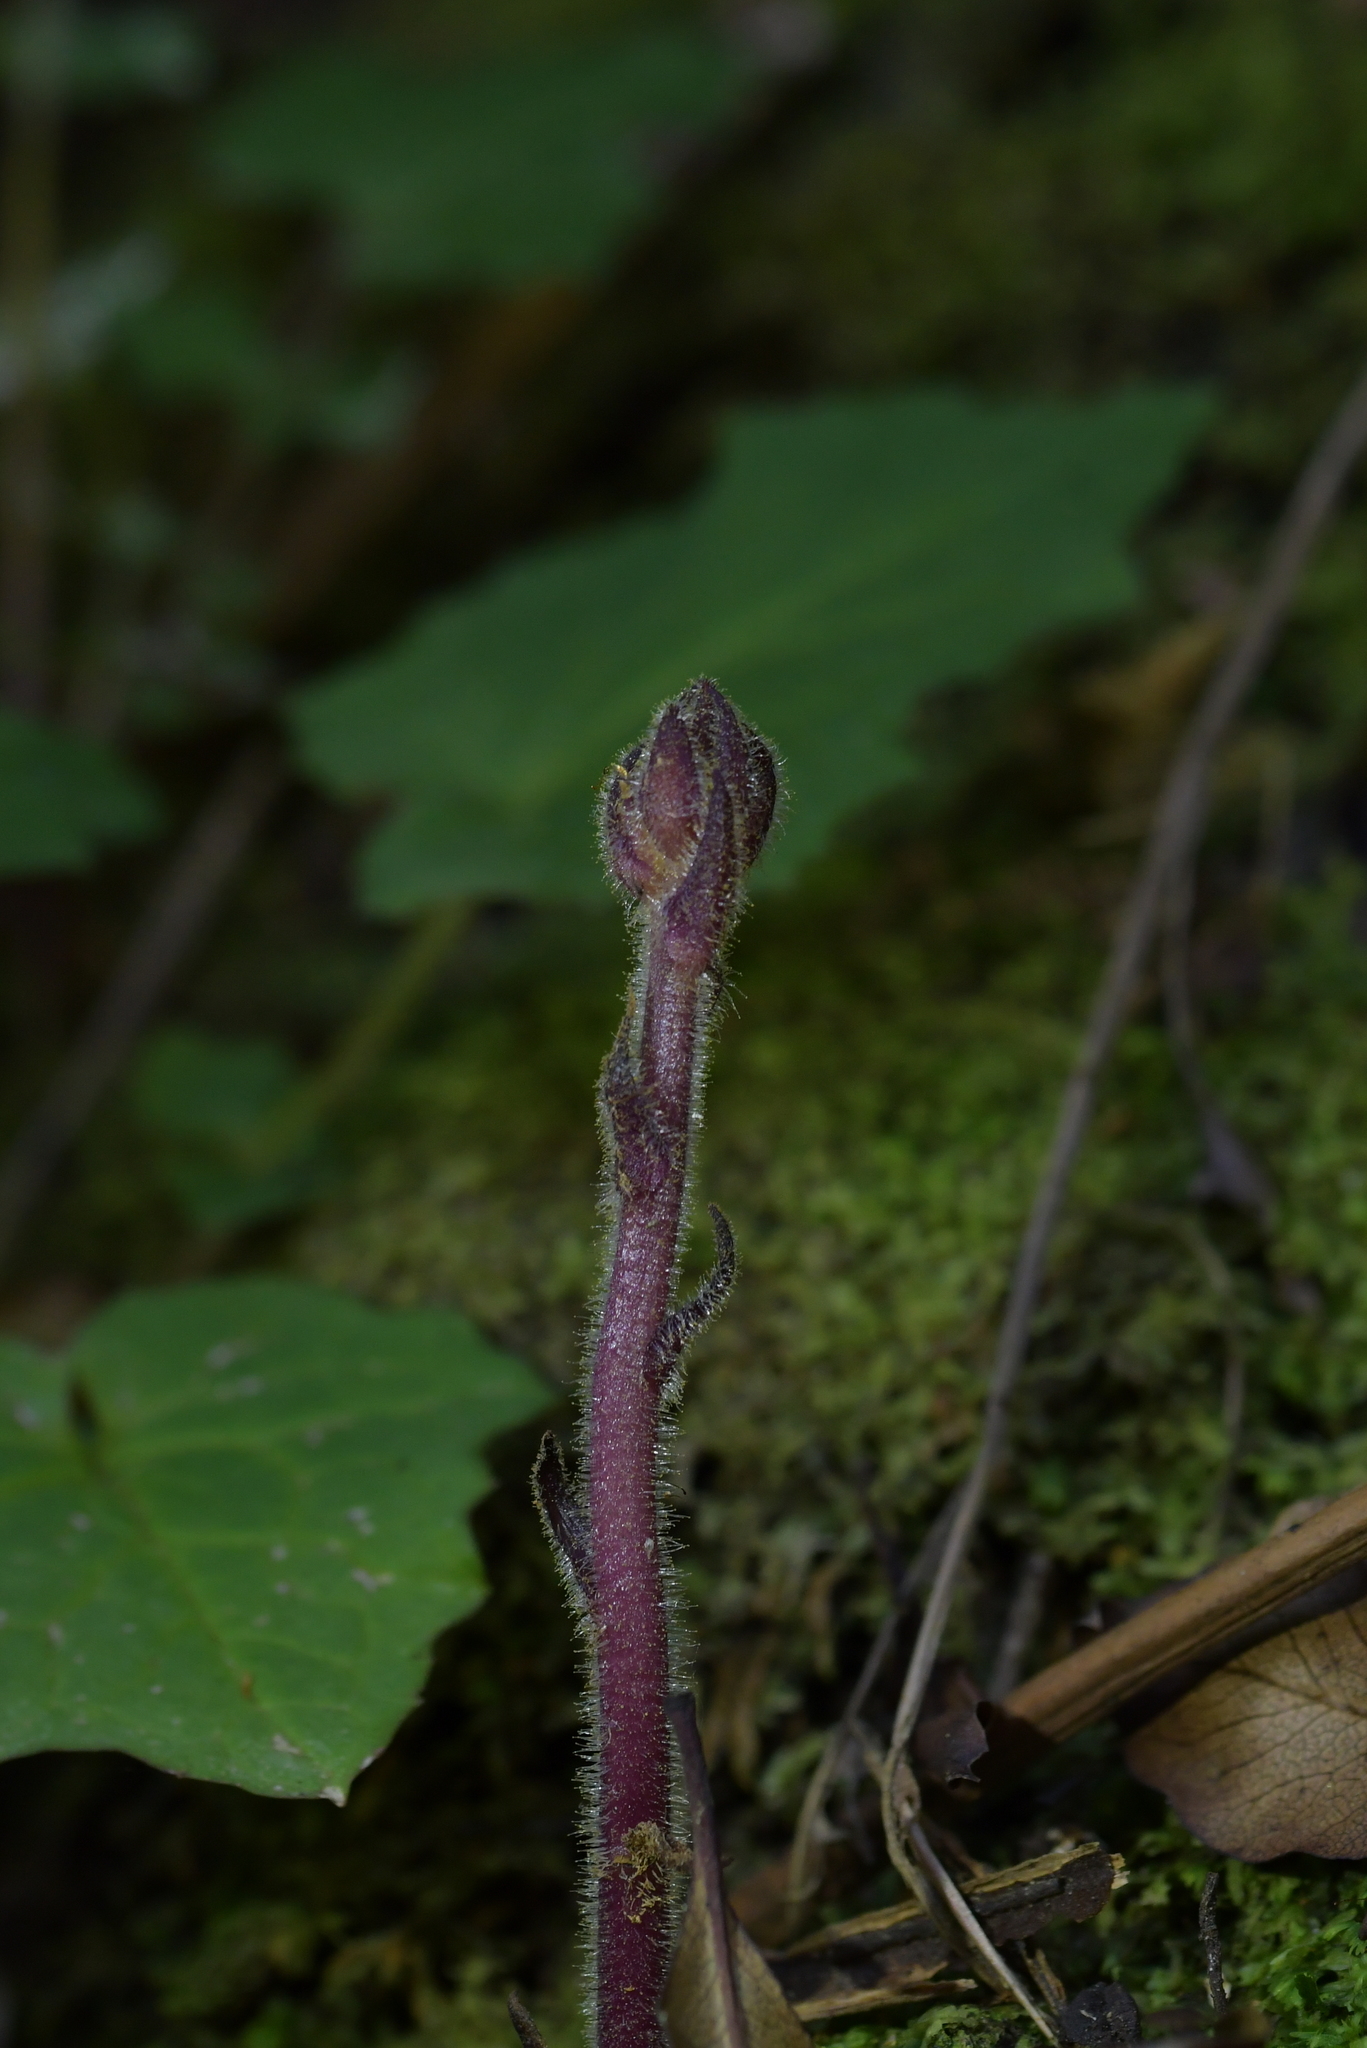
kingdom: Plantae
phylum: Tracheophyta
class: Magnoliopsida
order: Lamiales
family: Orobanchaceae
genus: Orobanche
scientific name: Orobanche minor
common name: Common broomrape
